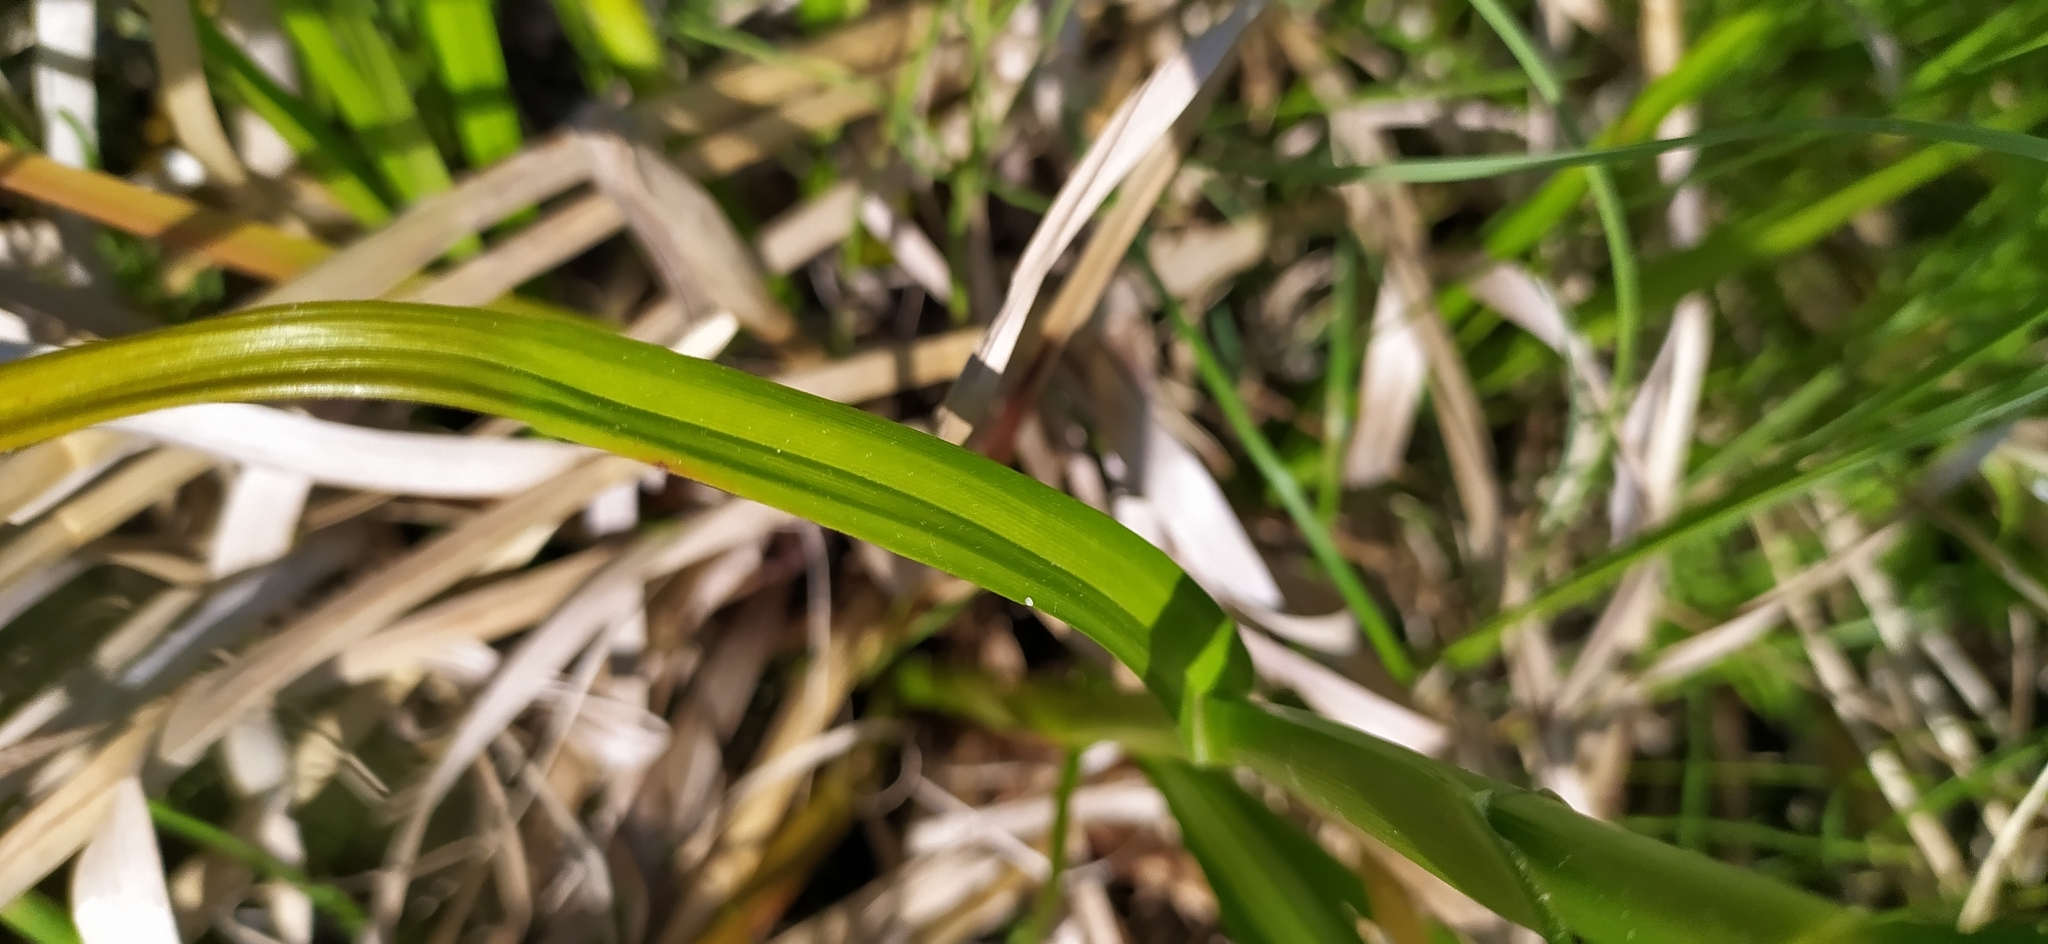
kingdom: Plantae
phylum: Tracheophyta
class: Liliopsida
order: Poales
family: Cyperaceae
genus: Scirpus
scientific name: Scirpus radicans
